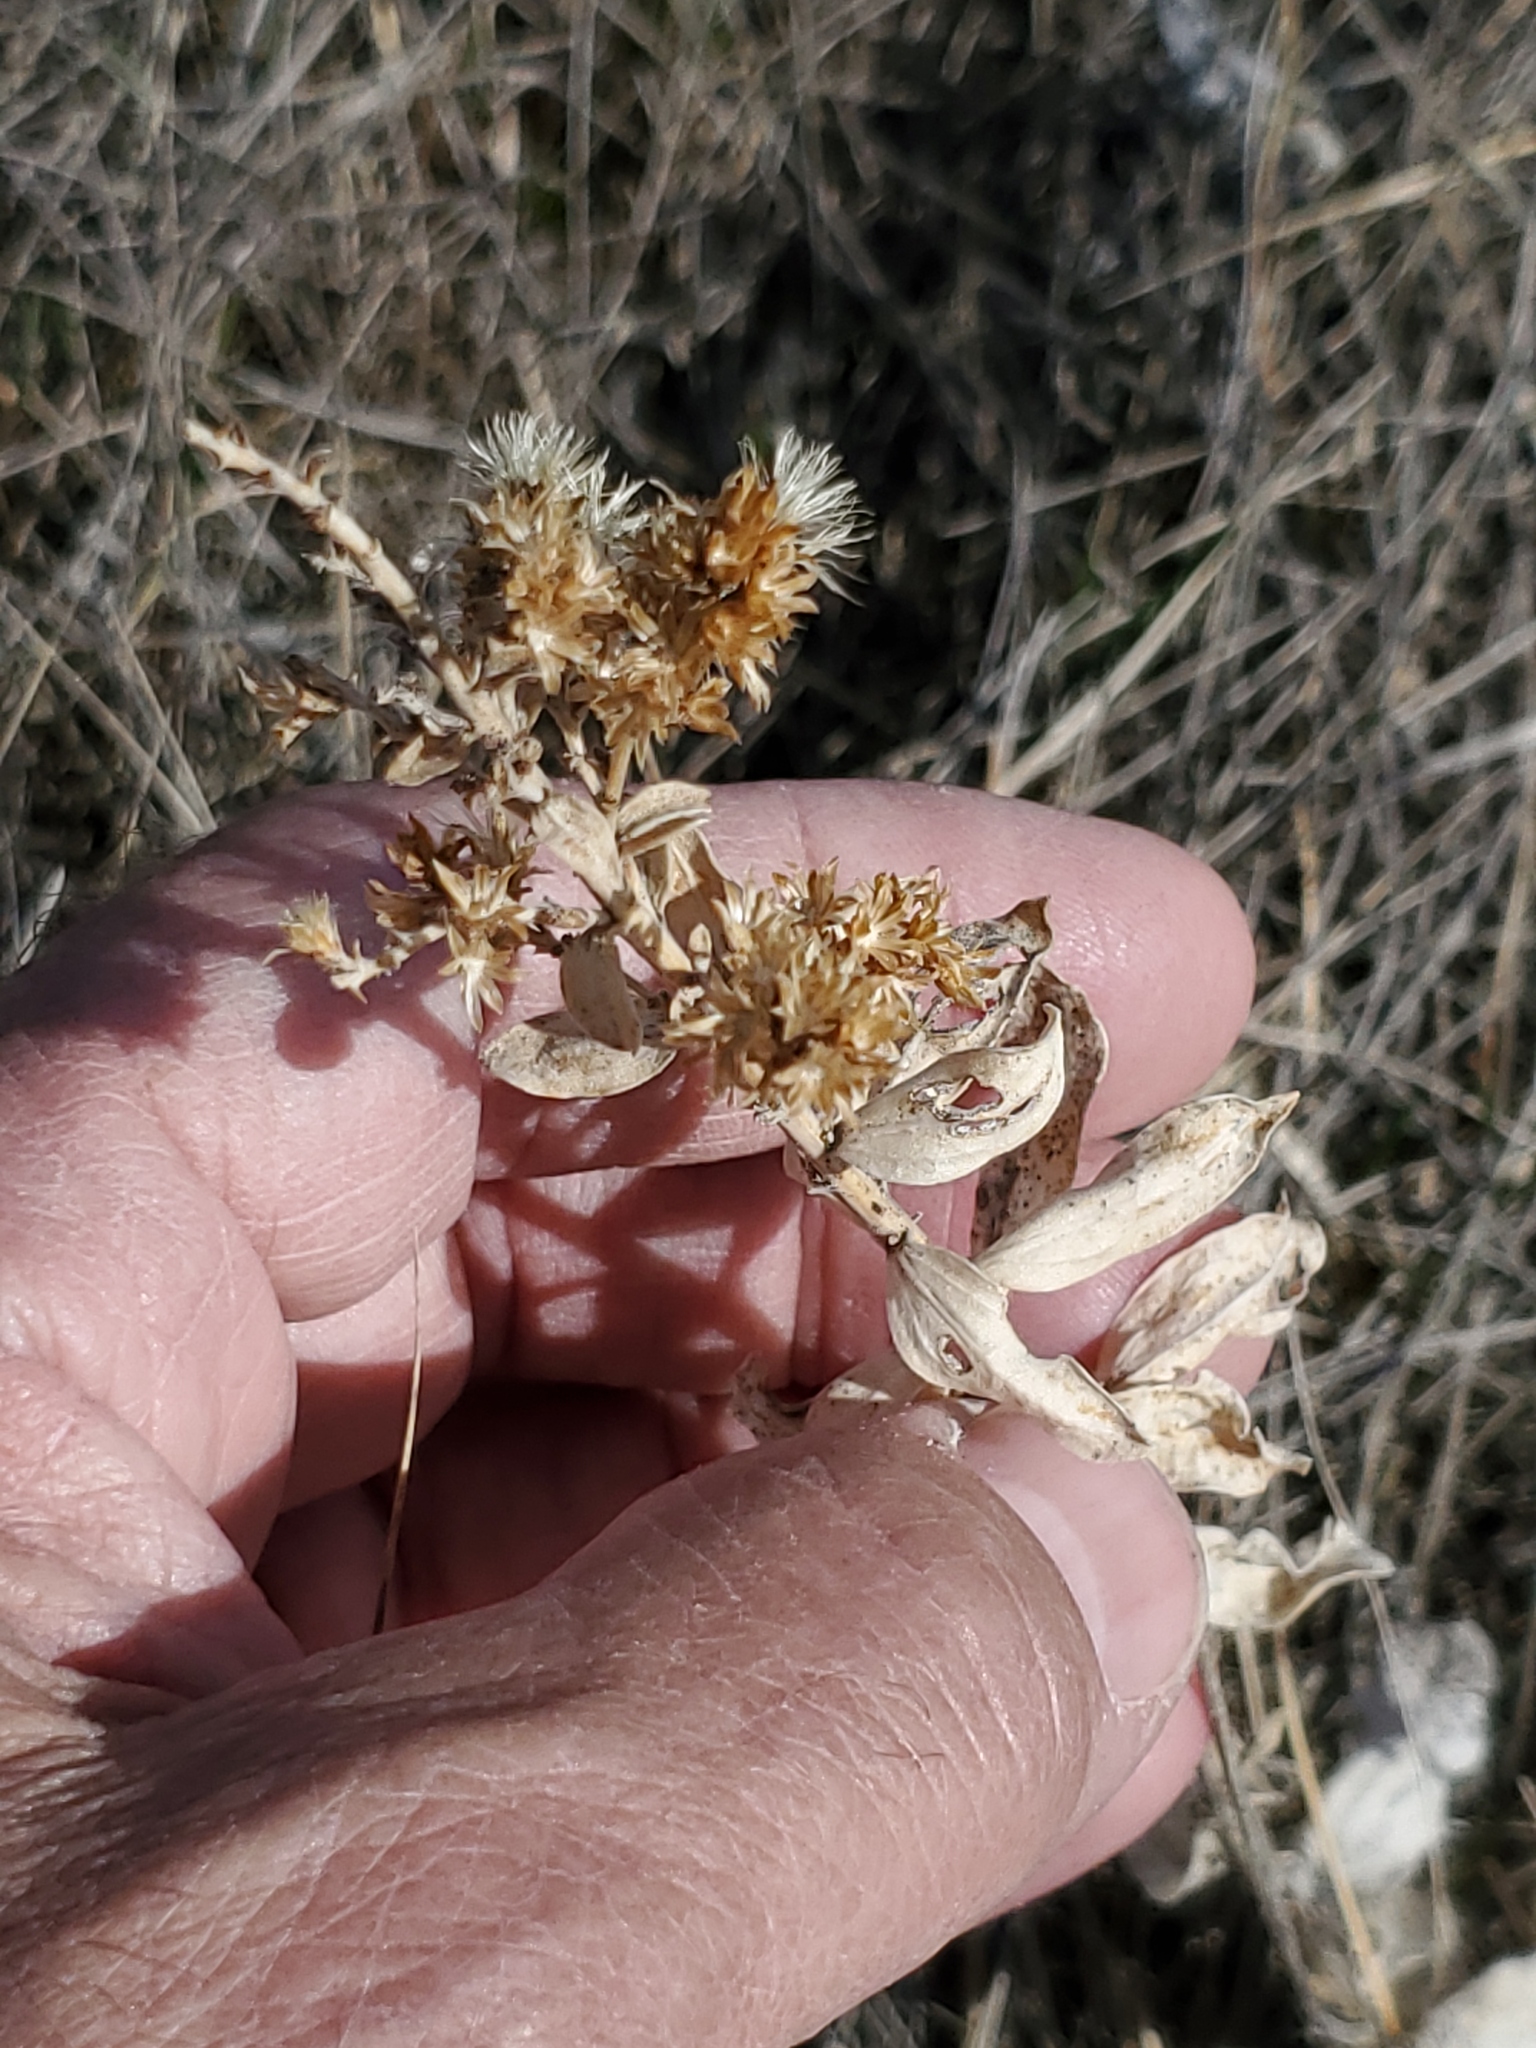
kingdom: Animalia
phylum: Chordata
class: Aves
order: Passeriformes
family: Corvidae
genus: Pica
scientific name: Pica hudsonia
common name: Black-billed magpie
